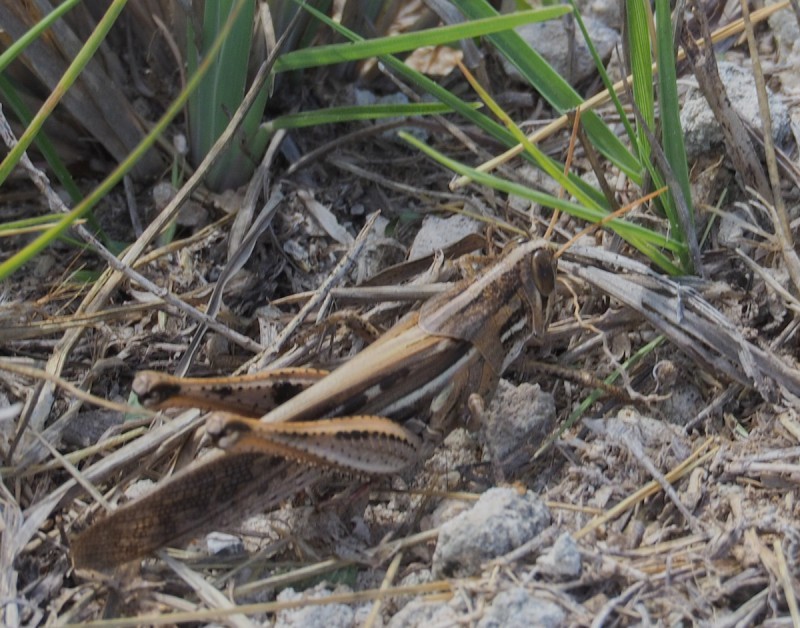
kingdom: Animalia
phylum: Arthropoda
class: Insecta
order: Orthoptera
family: Acrididae
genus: Schistocerca
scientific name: Schistocerca serialis
